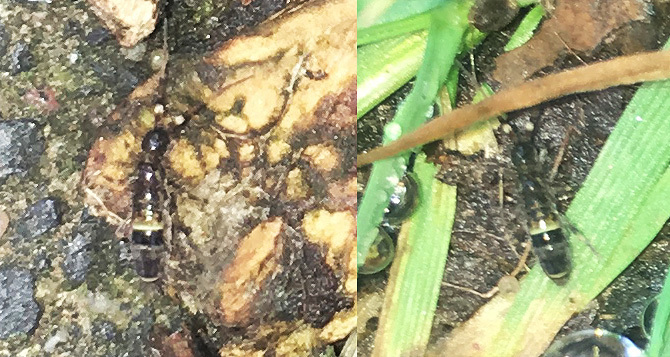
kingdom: Animalia
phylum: Arthropoda
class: Collembola
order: Entomobryomorpha
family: Orchesellidae
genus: Orchesella
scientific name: Orchesella cincta
